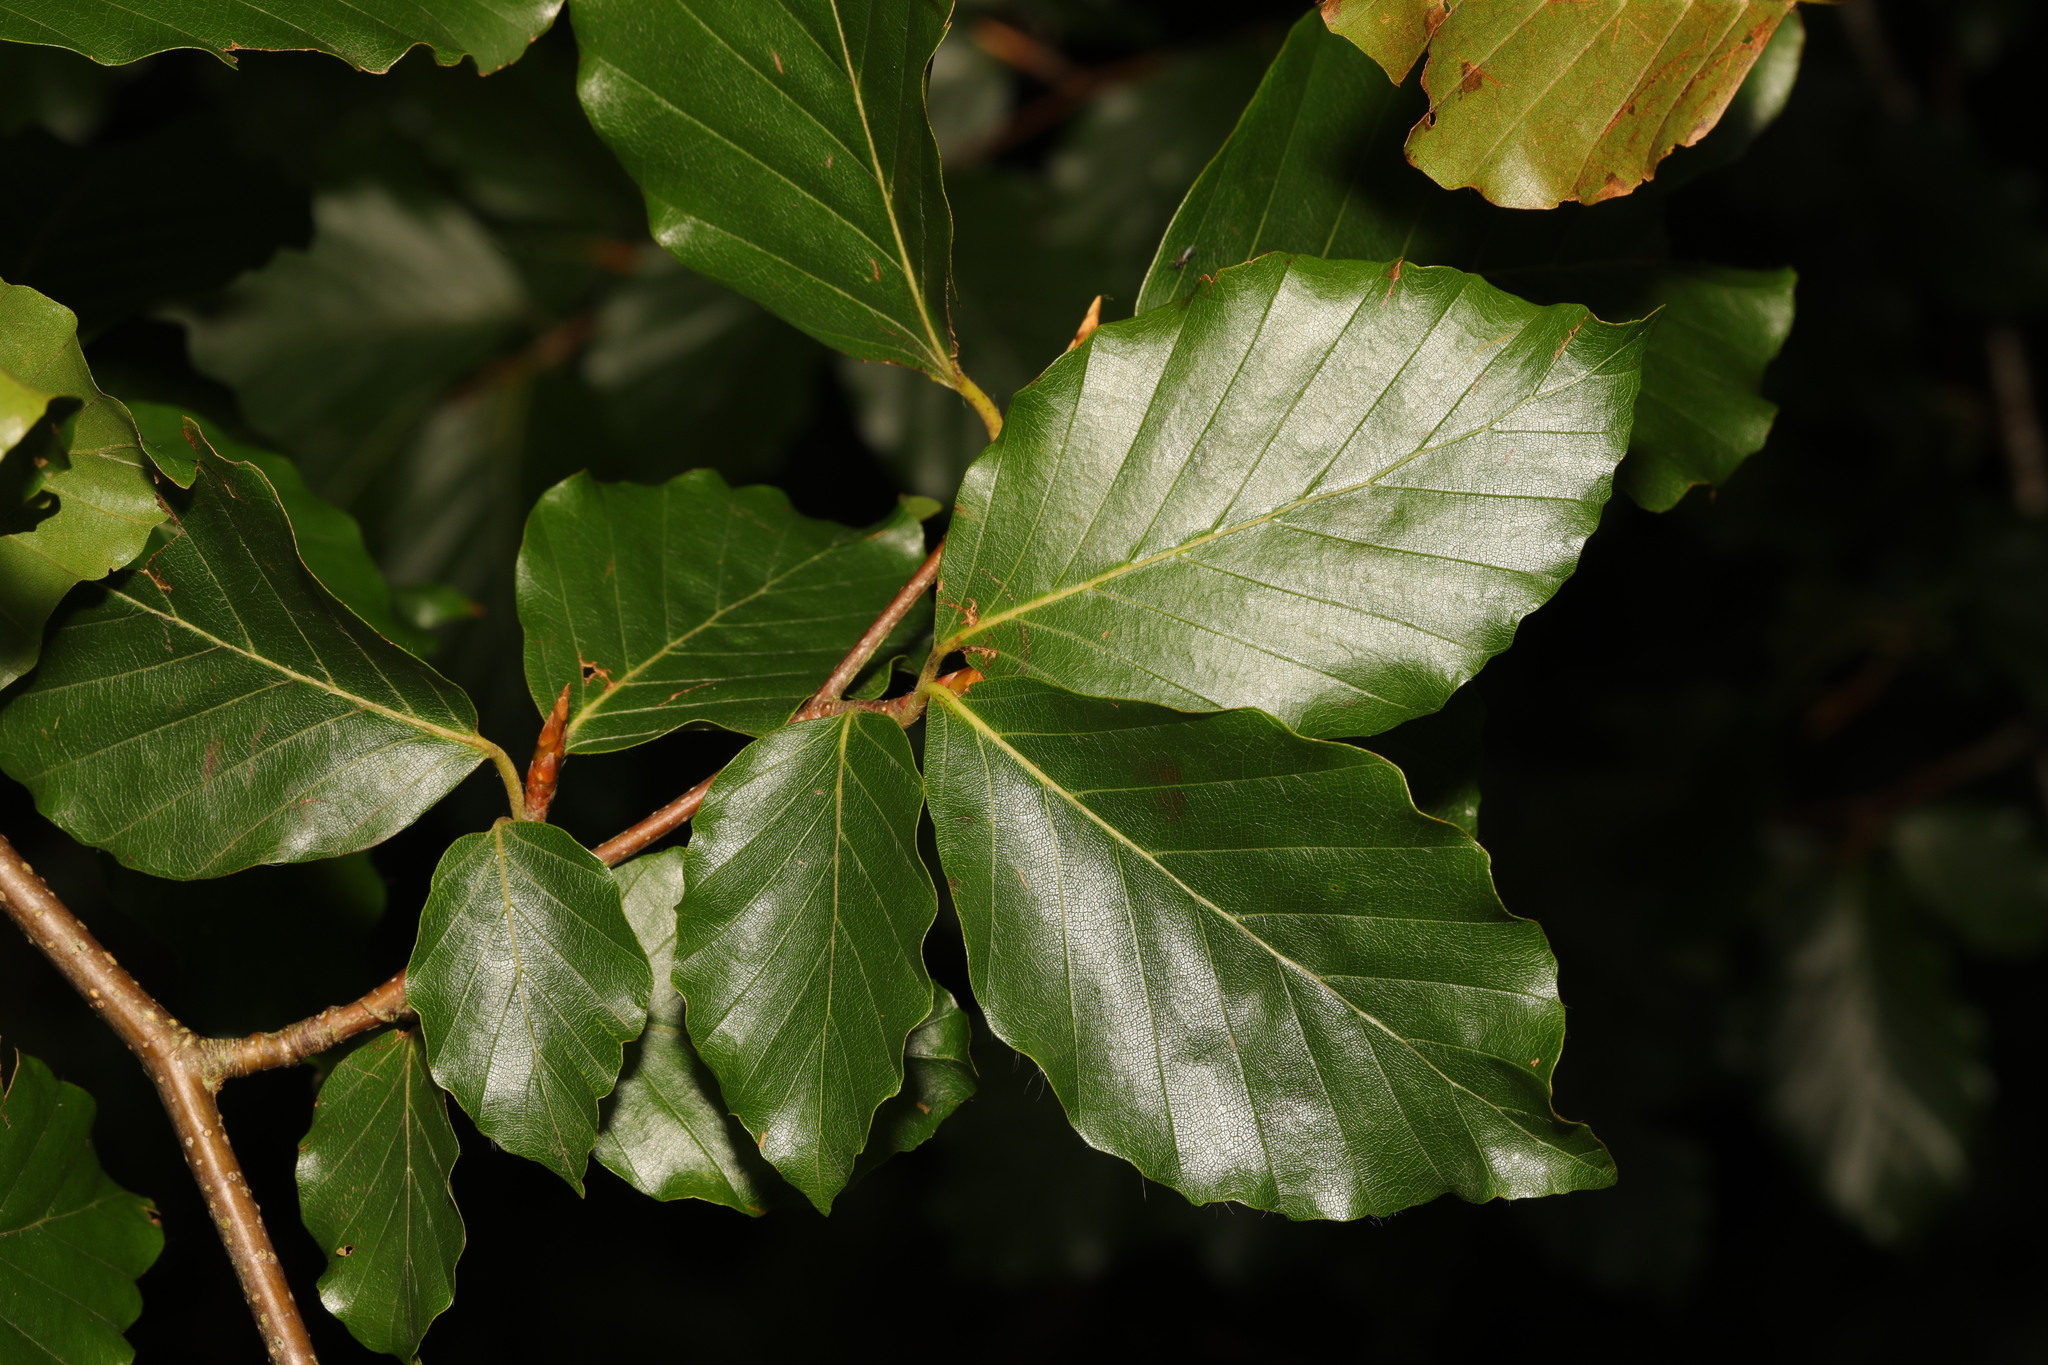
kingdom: Plantae
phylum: Tracheophyta
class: Magnoliopsida
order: Fagales
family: Fagaceae
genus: Fagus
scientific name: Fagus sylvatica
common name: Beech
